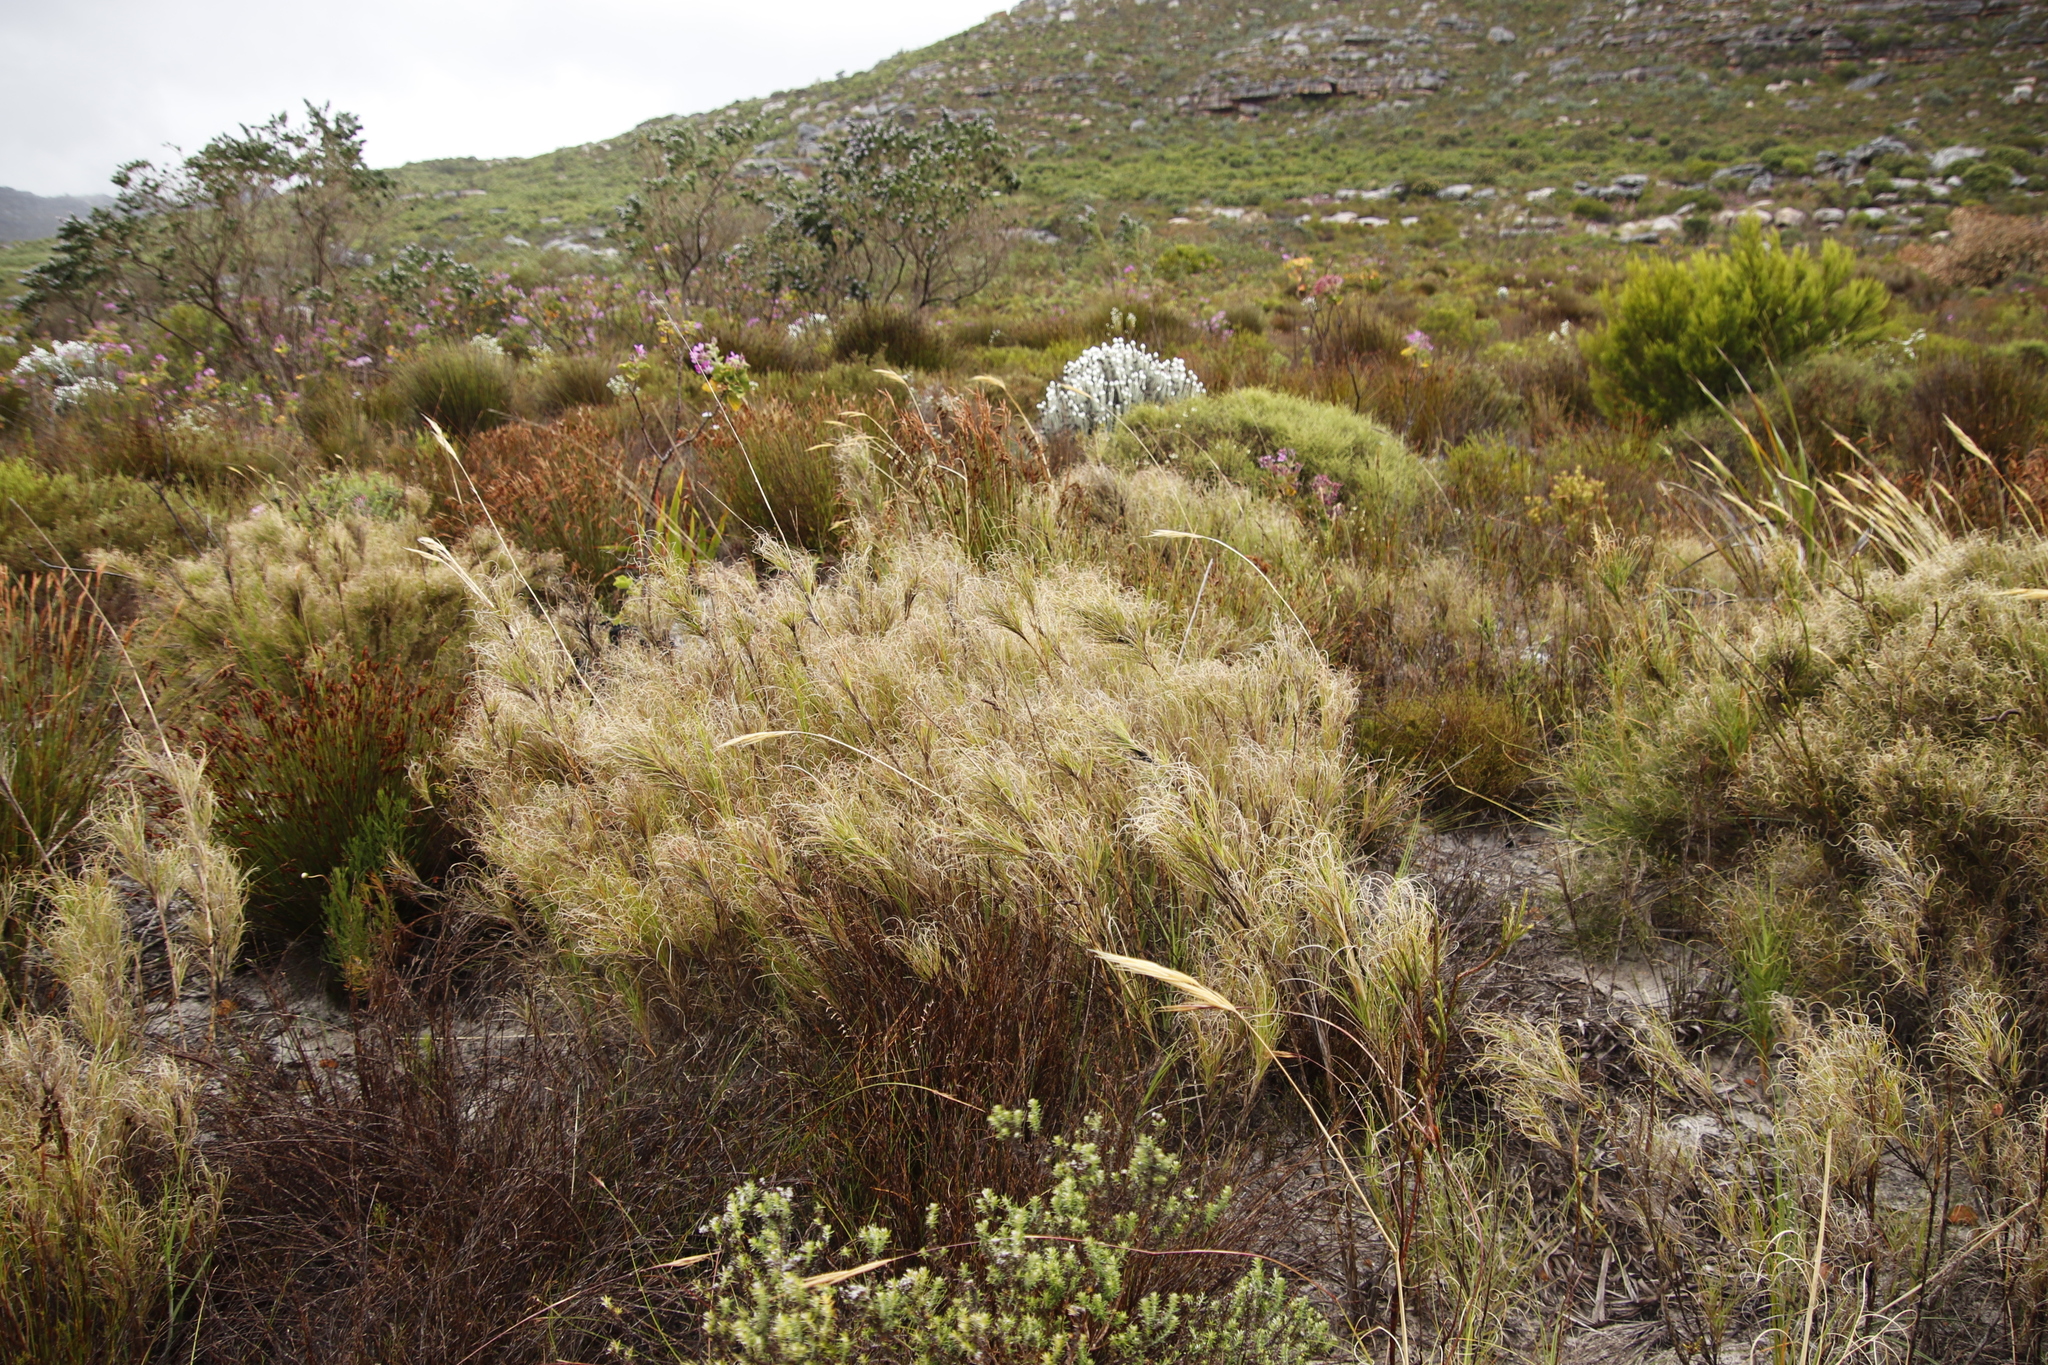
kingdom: Plantae
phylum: Tracheophyta
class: Liliopsida
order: Poales
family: Poaceae
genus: Pseudopentameris
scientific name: Pseudopentameris macrantha
